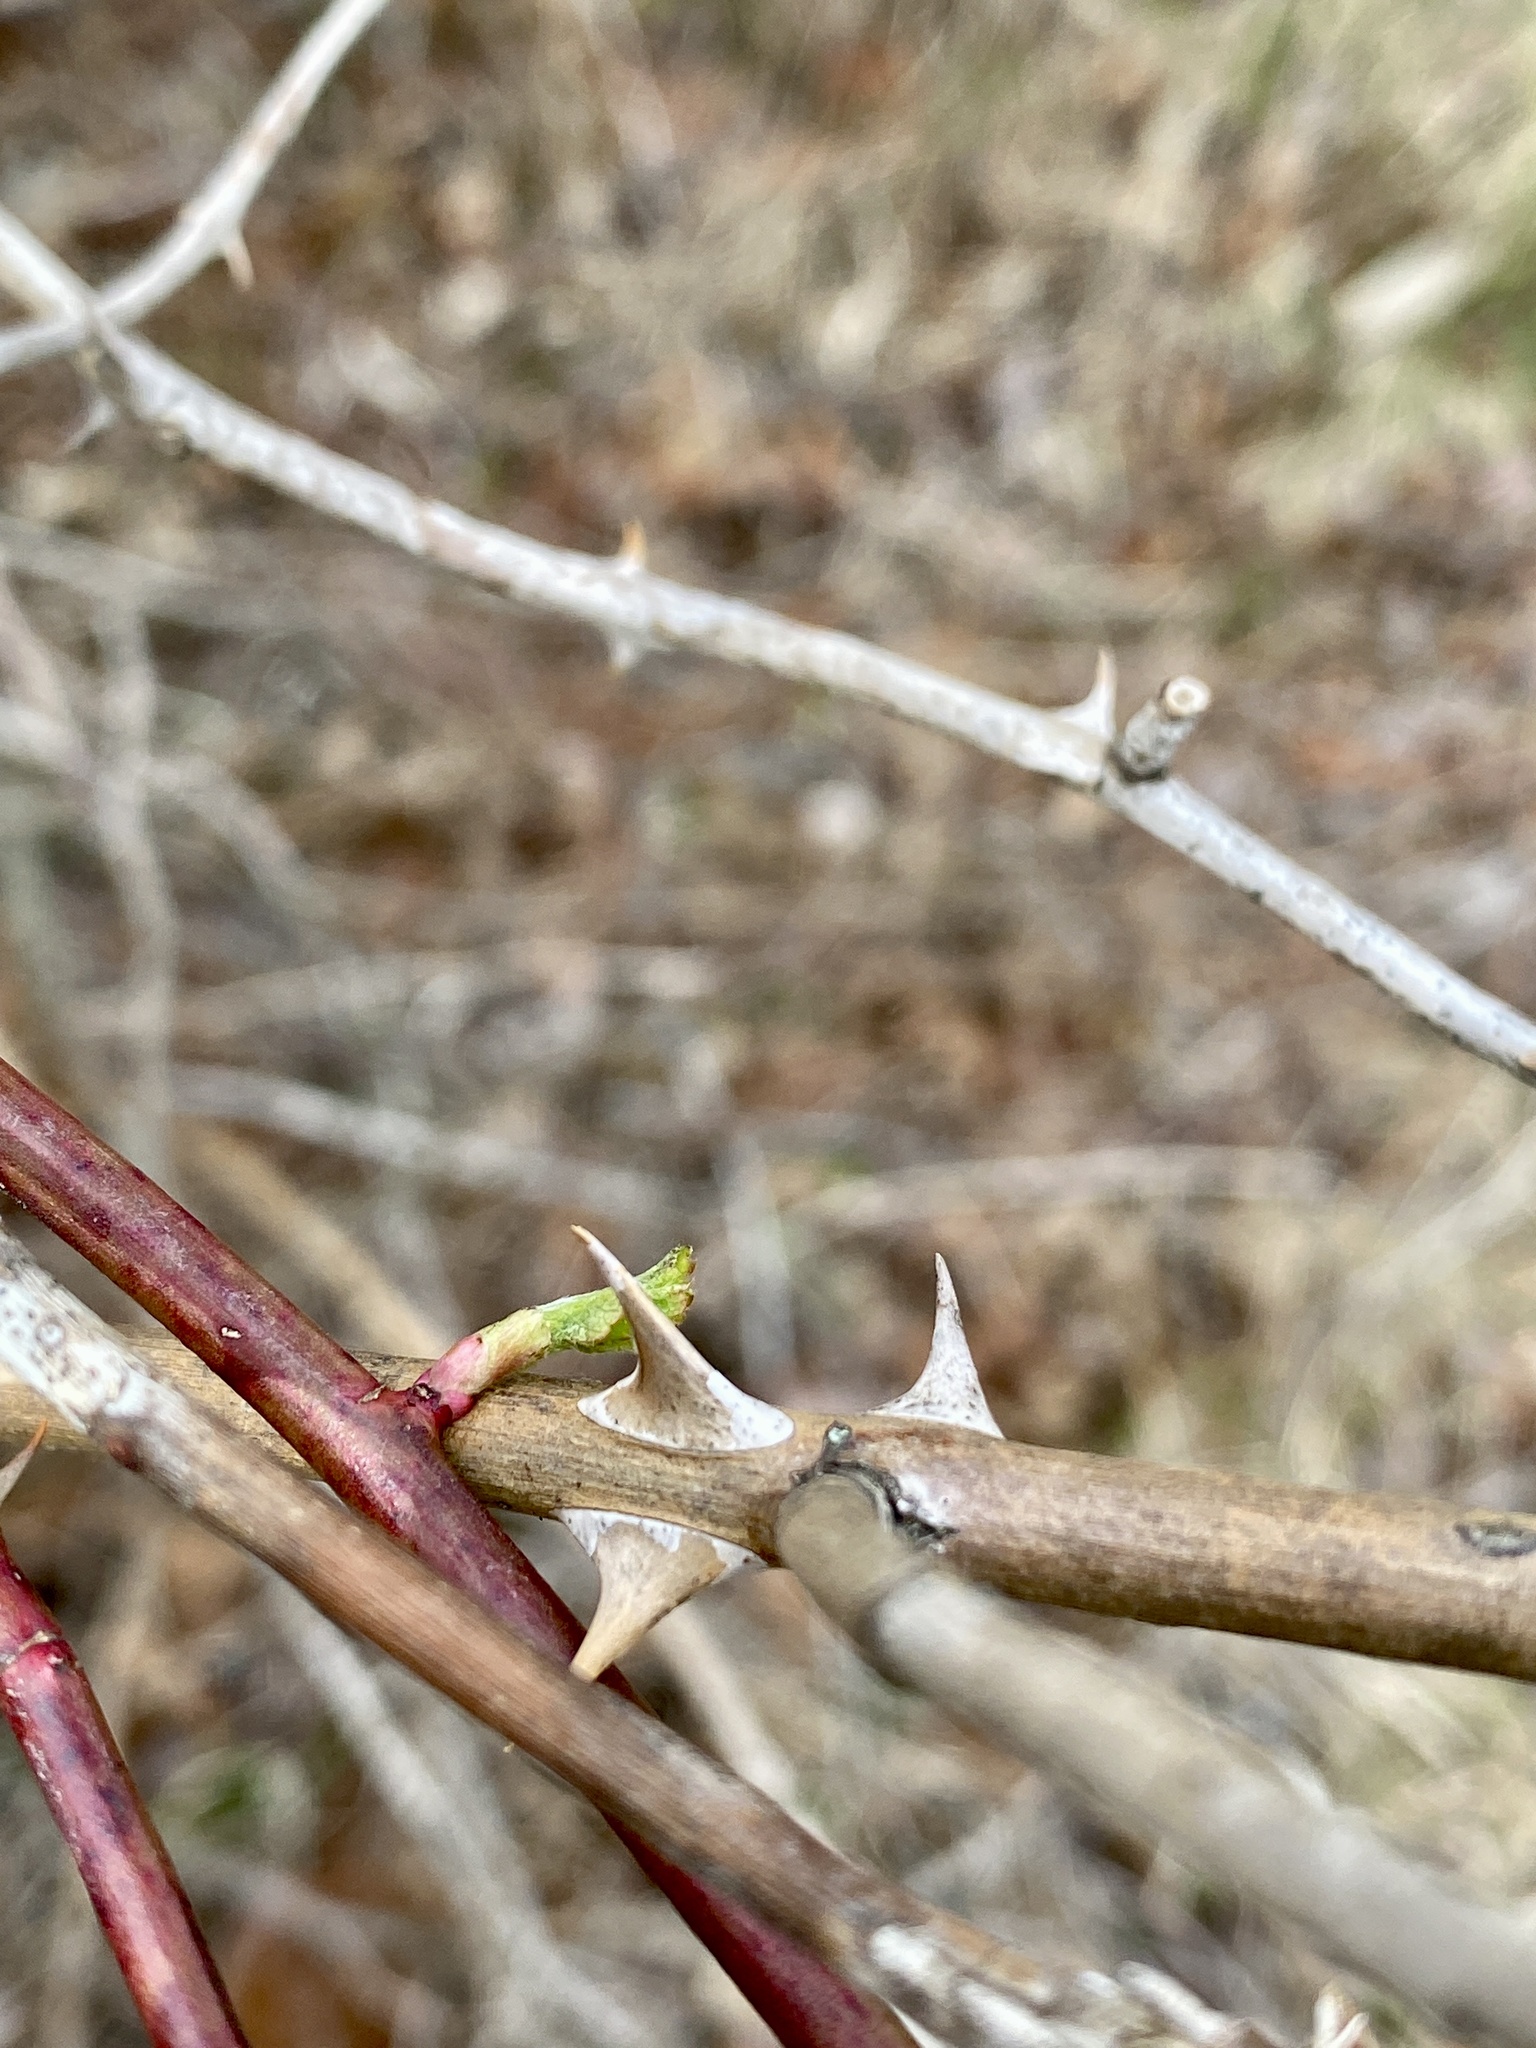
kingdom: Plantae
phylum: Tracheophyta
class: Magnoliopsida
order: Rosales
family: Rosaceae
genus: Rosa
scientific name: Rosa multiflora
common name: Multiflora rose
